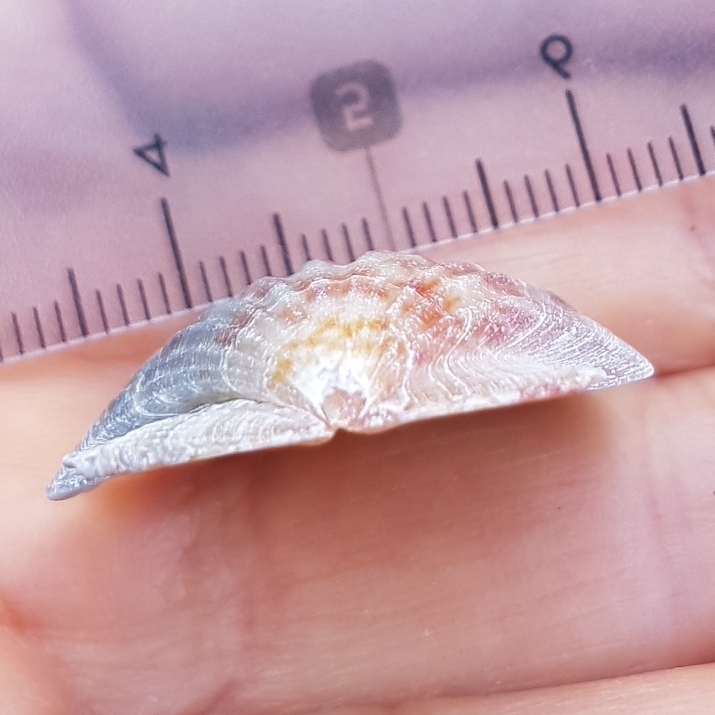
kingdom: Animalia
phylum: Mollusca
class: Bivalvia
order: Pectinida
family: Pectinidae
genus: Flexopecten
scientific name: Flexopecten glaber
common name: Smooth scallop
